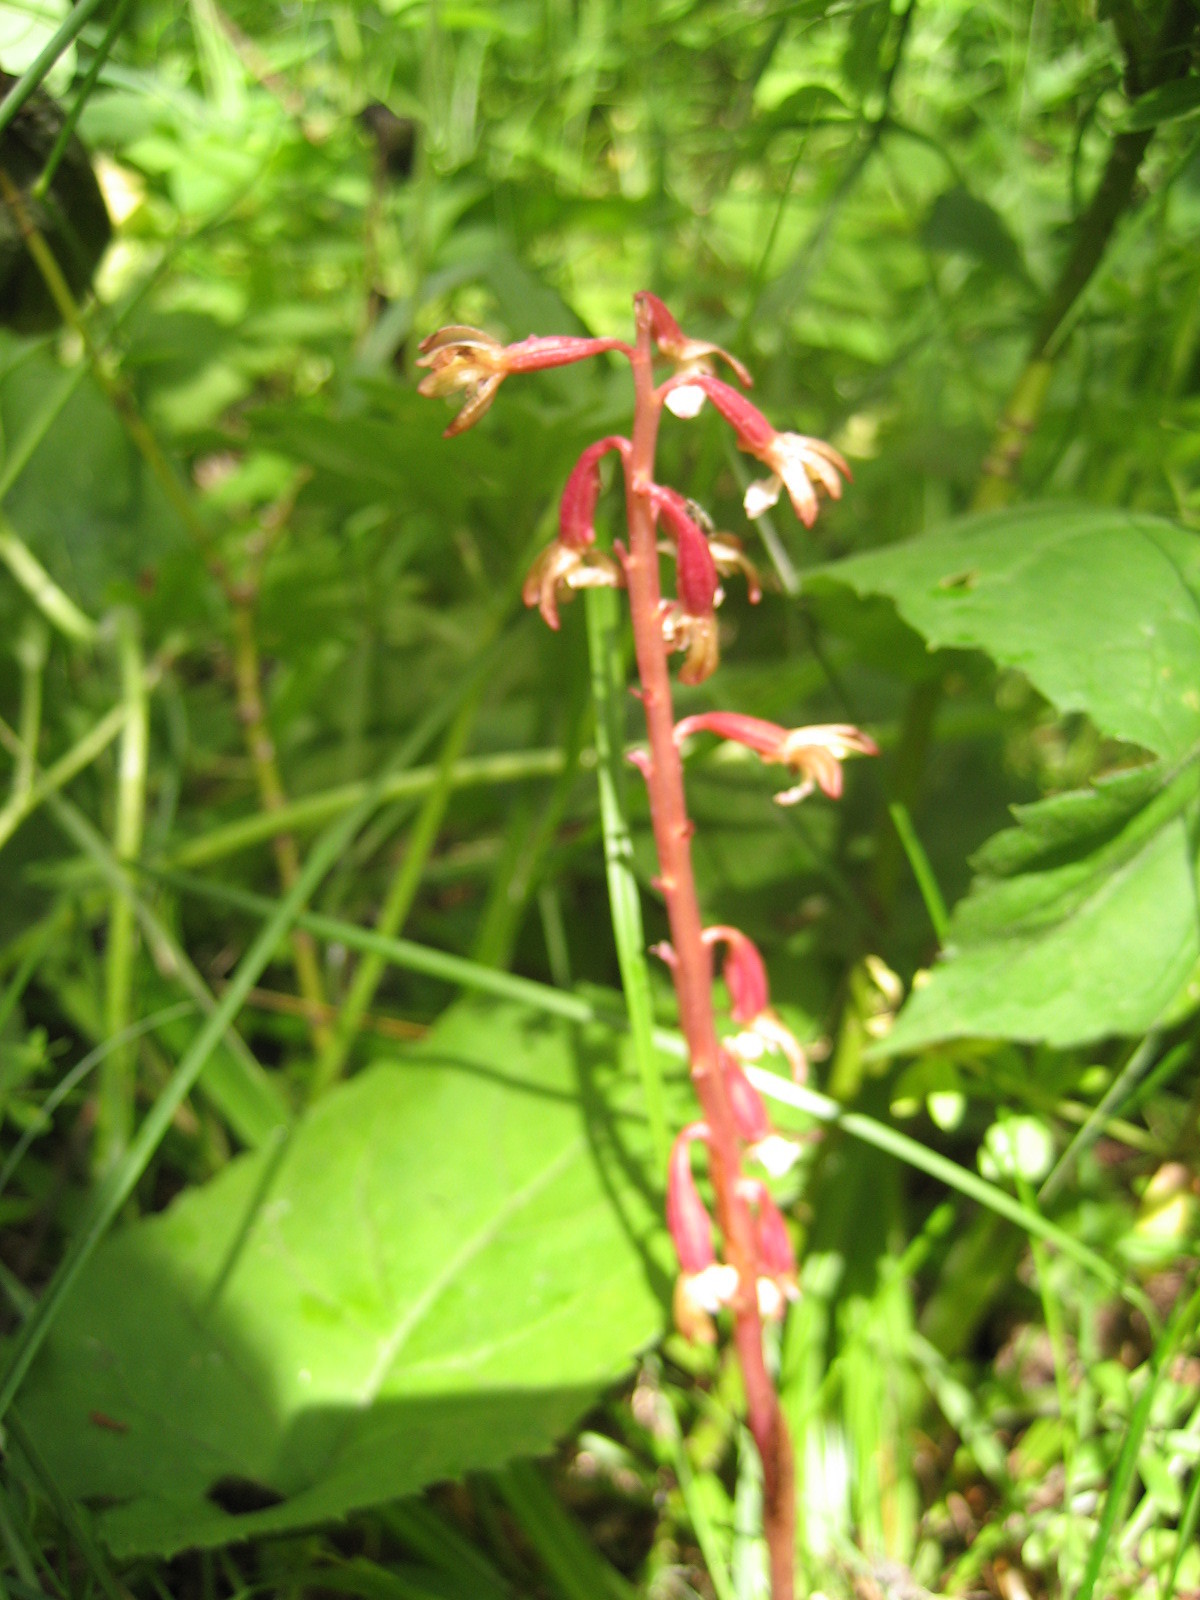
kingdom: Plantae
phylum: Tracheophyta
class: Liliopsida
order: Asparagales
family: Orchidaceae
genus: Corallorhiza
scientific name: Corallorhiza maculata
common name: Spotted coralroot
